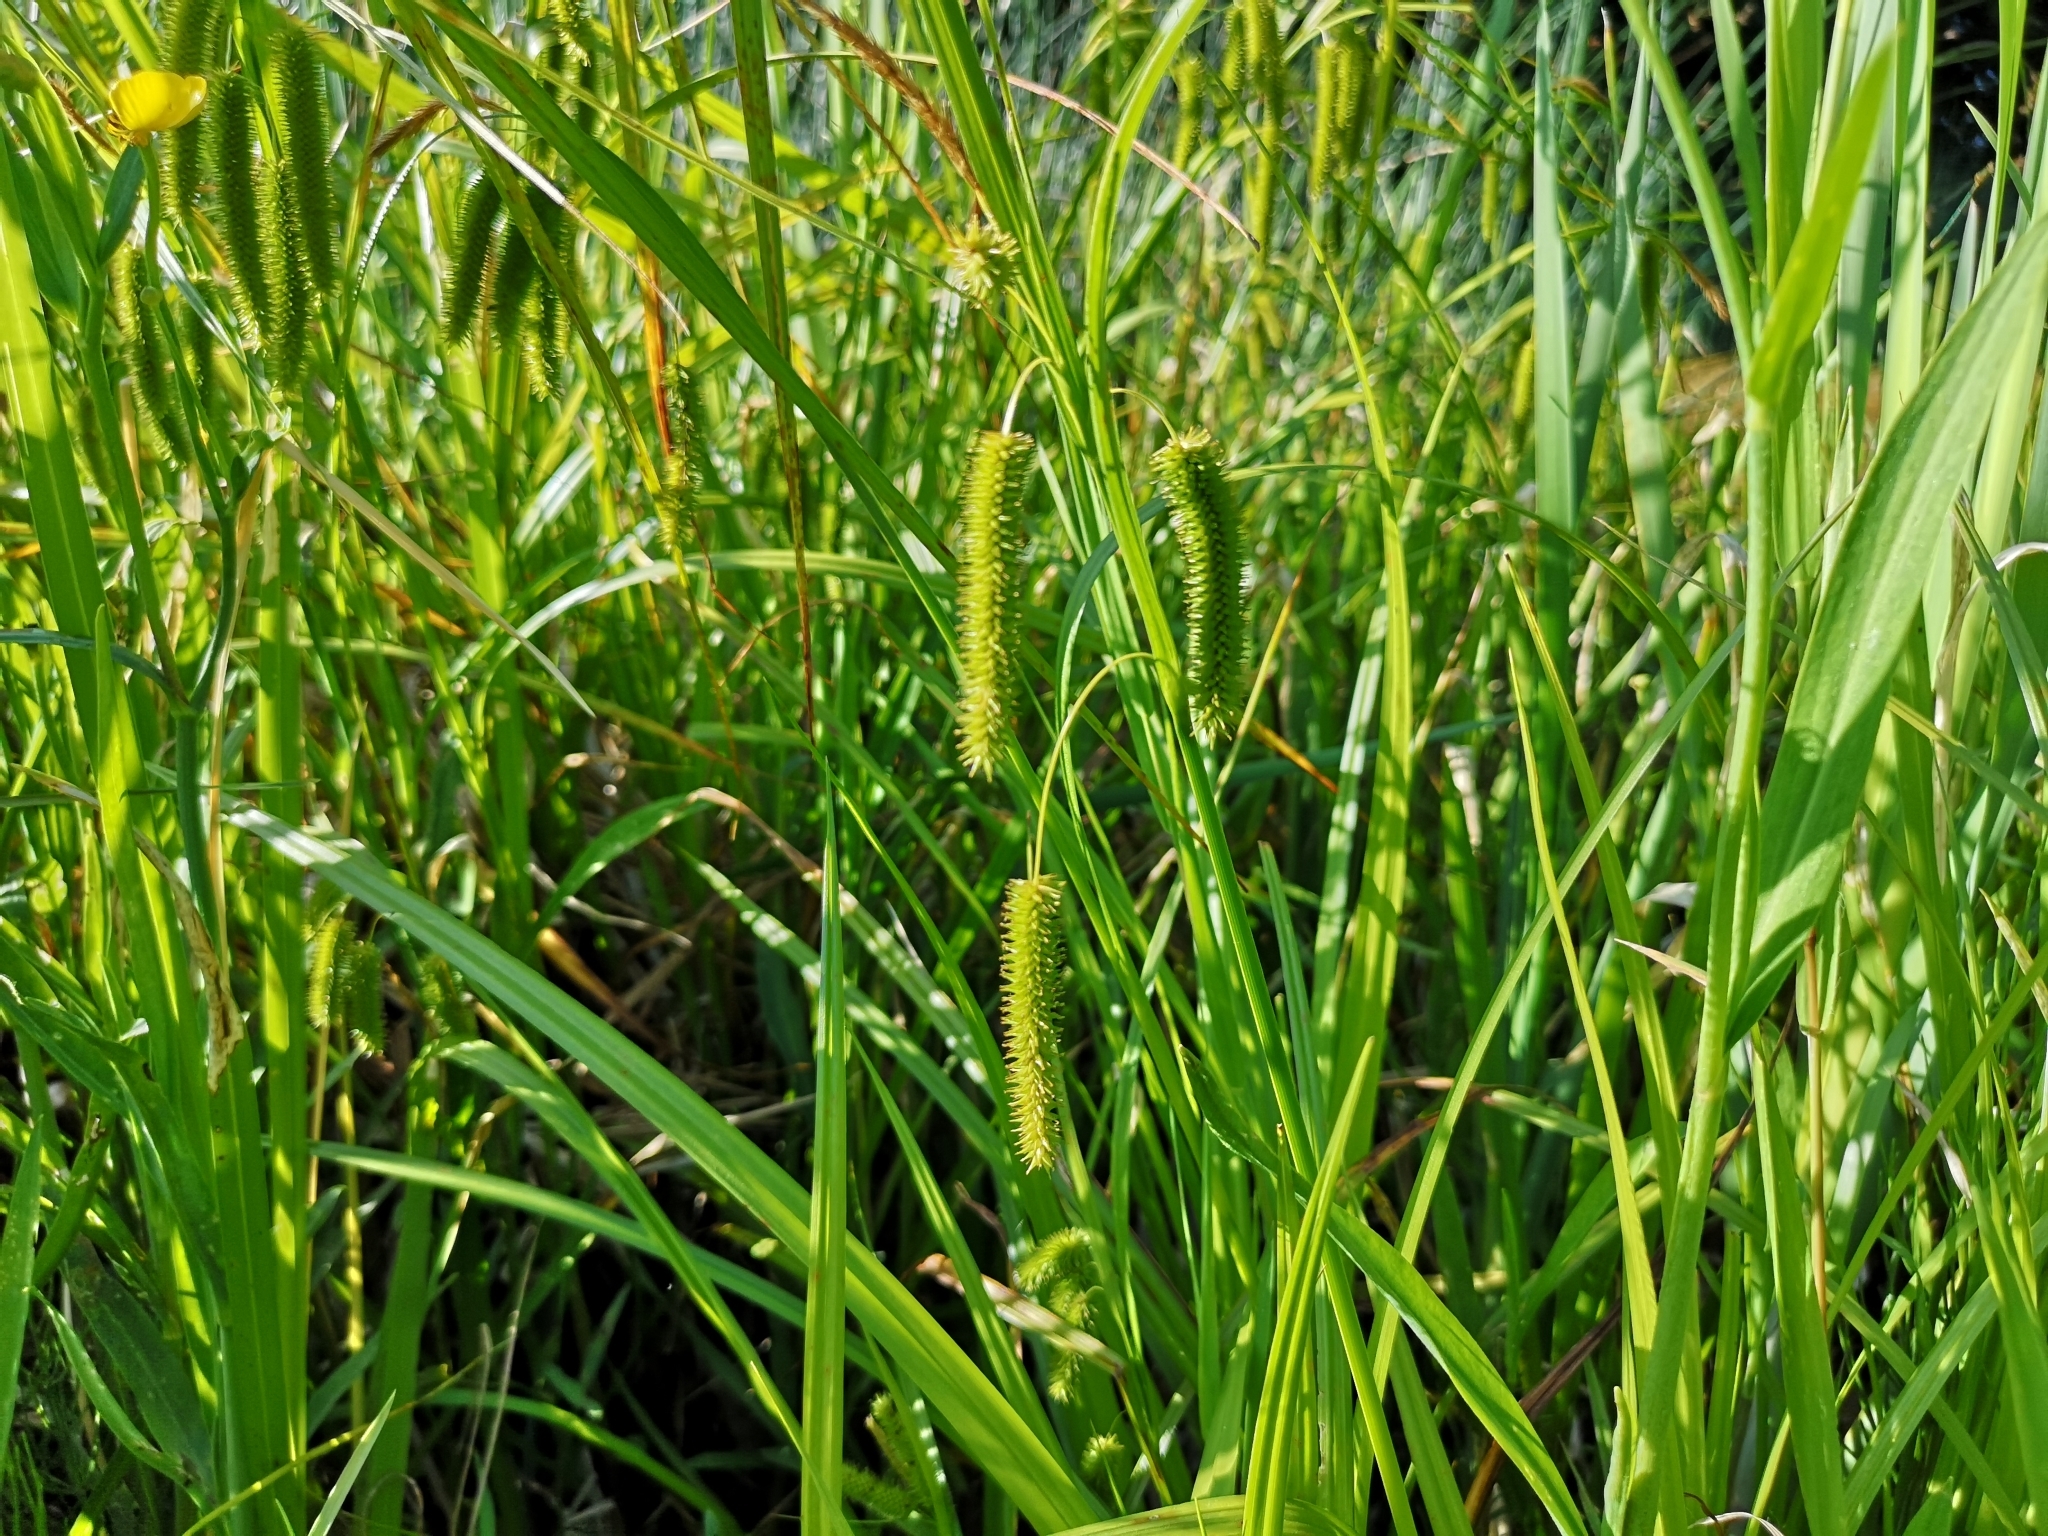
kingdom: Plantae
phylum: Tracheophyta
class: Liliopsida
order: Poales
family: Cyperaceae
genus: Carex
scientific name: Carex pseudocyperus
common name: Cyperus sedge
